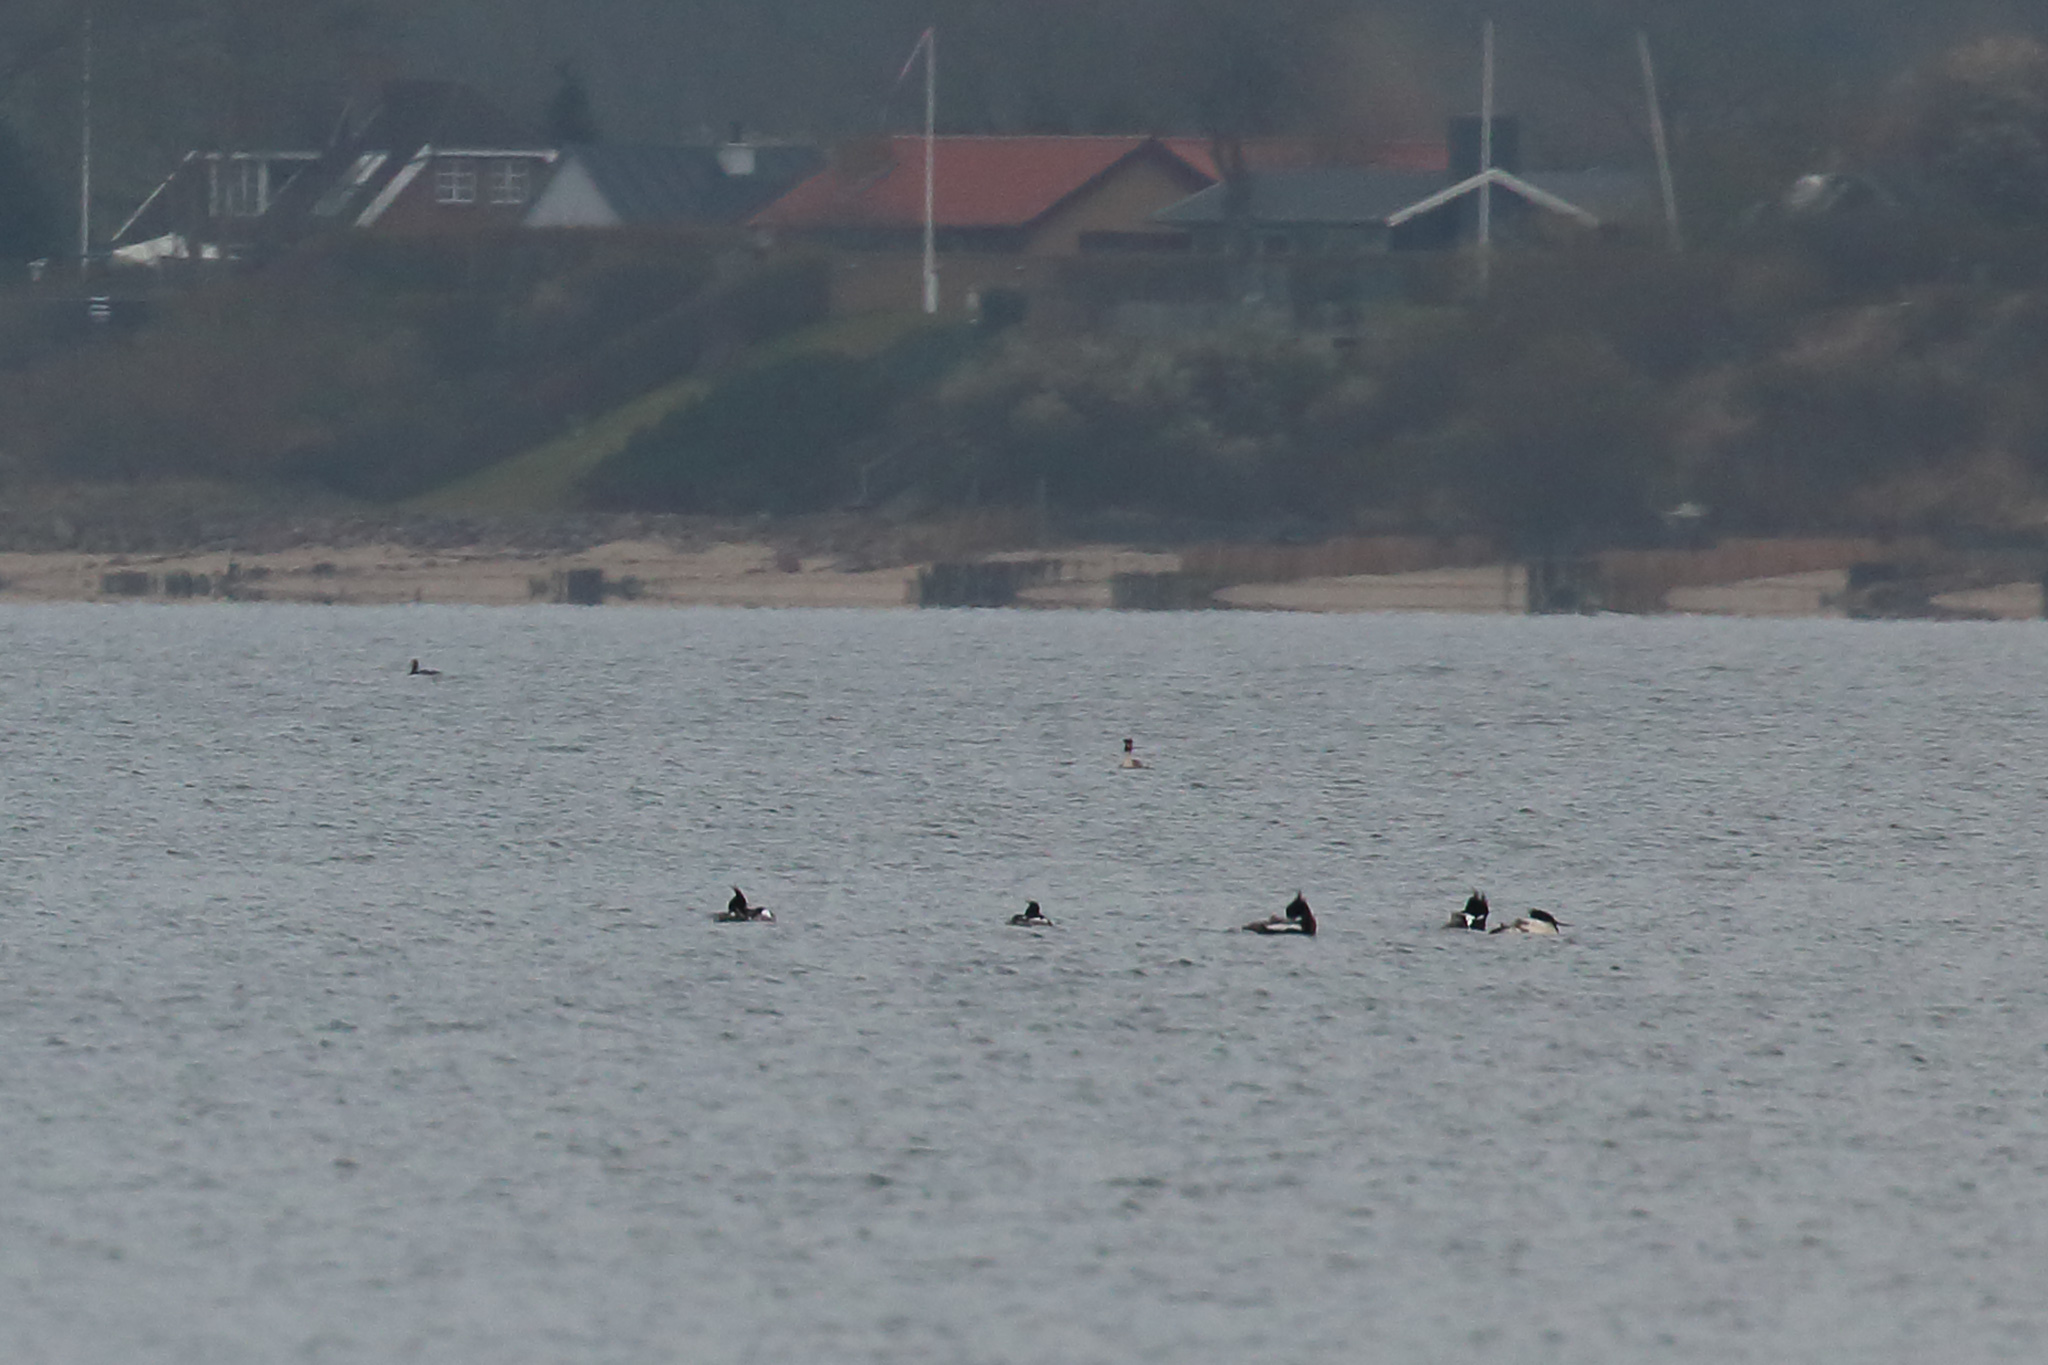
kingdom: Animalia
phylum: Chordata
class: Aves
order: Anseriformes
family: Anatidae
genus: Mergus
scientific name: Mergus serrator
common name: Red-breasted merganser
